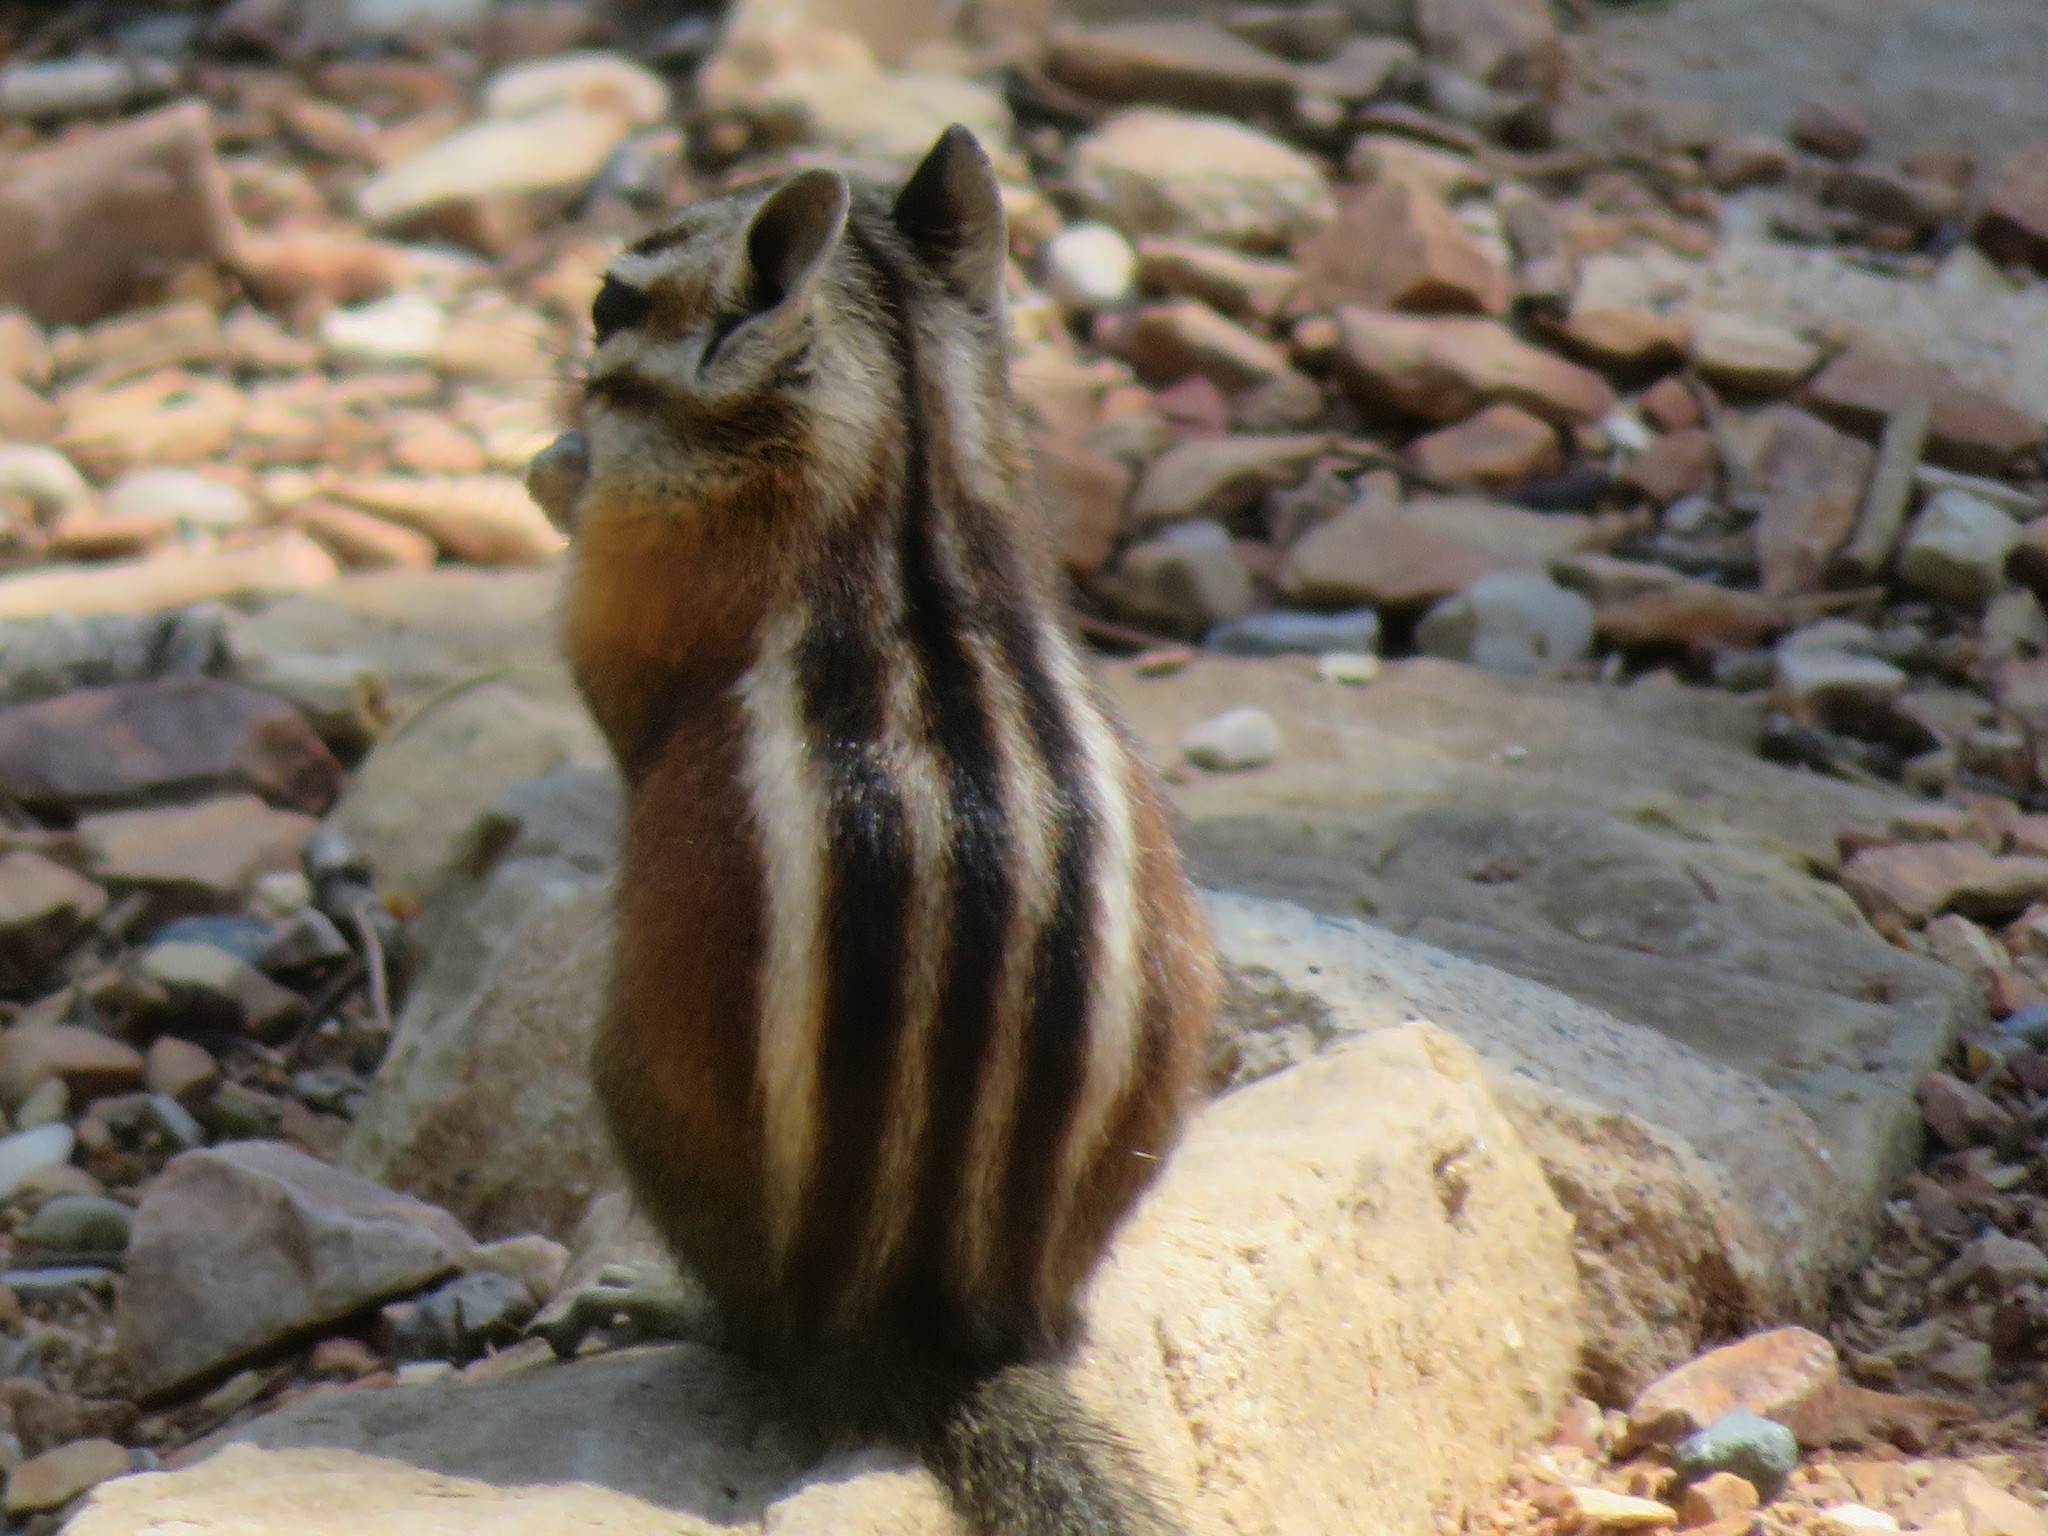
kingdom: Animalia
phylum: Chordata
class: Mammalia
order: Rodentia
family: Sciuridae
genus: Tamias
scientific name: Tamias umbrinus
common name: Uinta chipmunk
